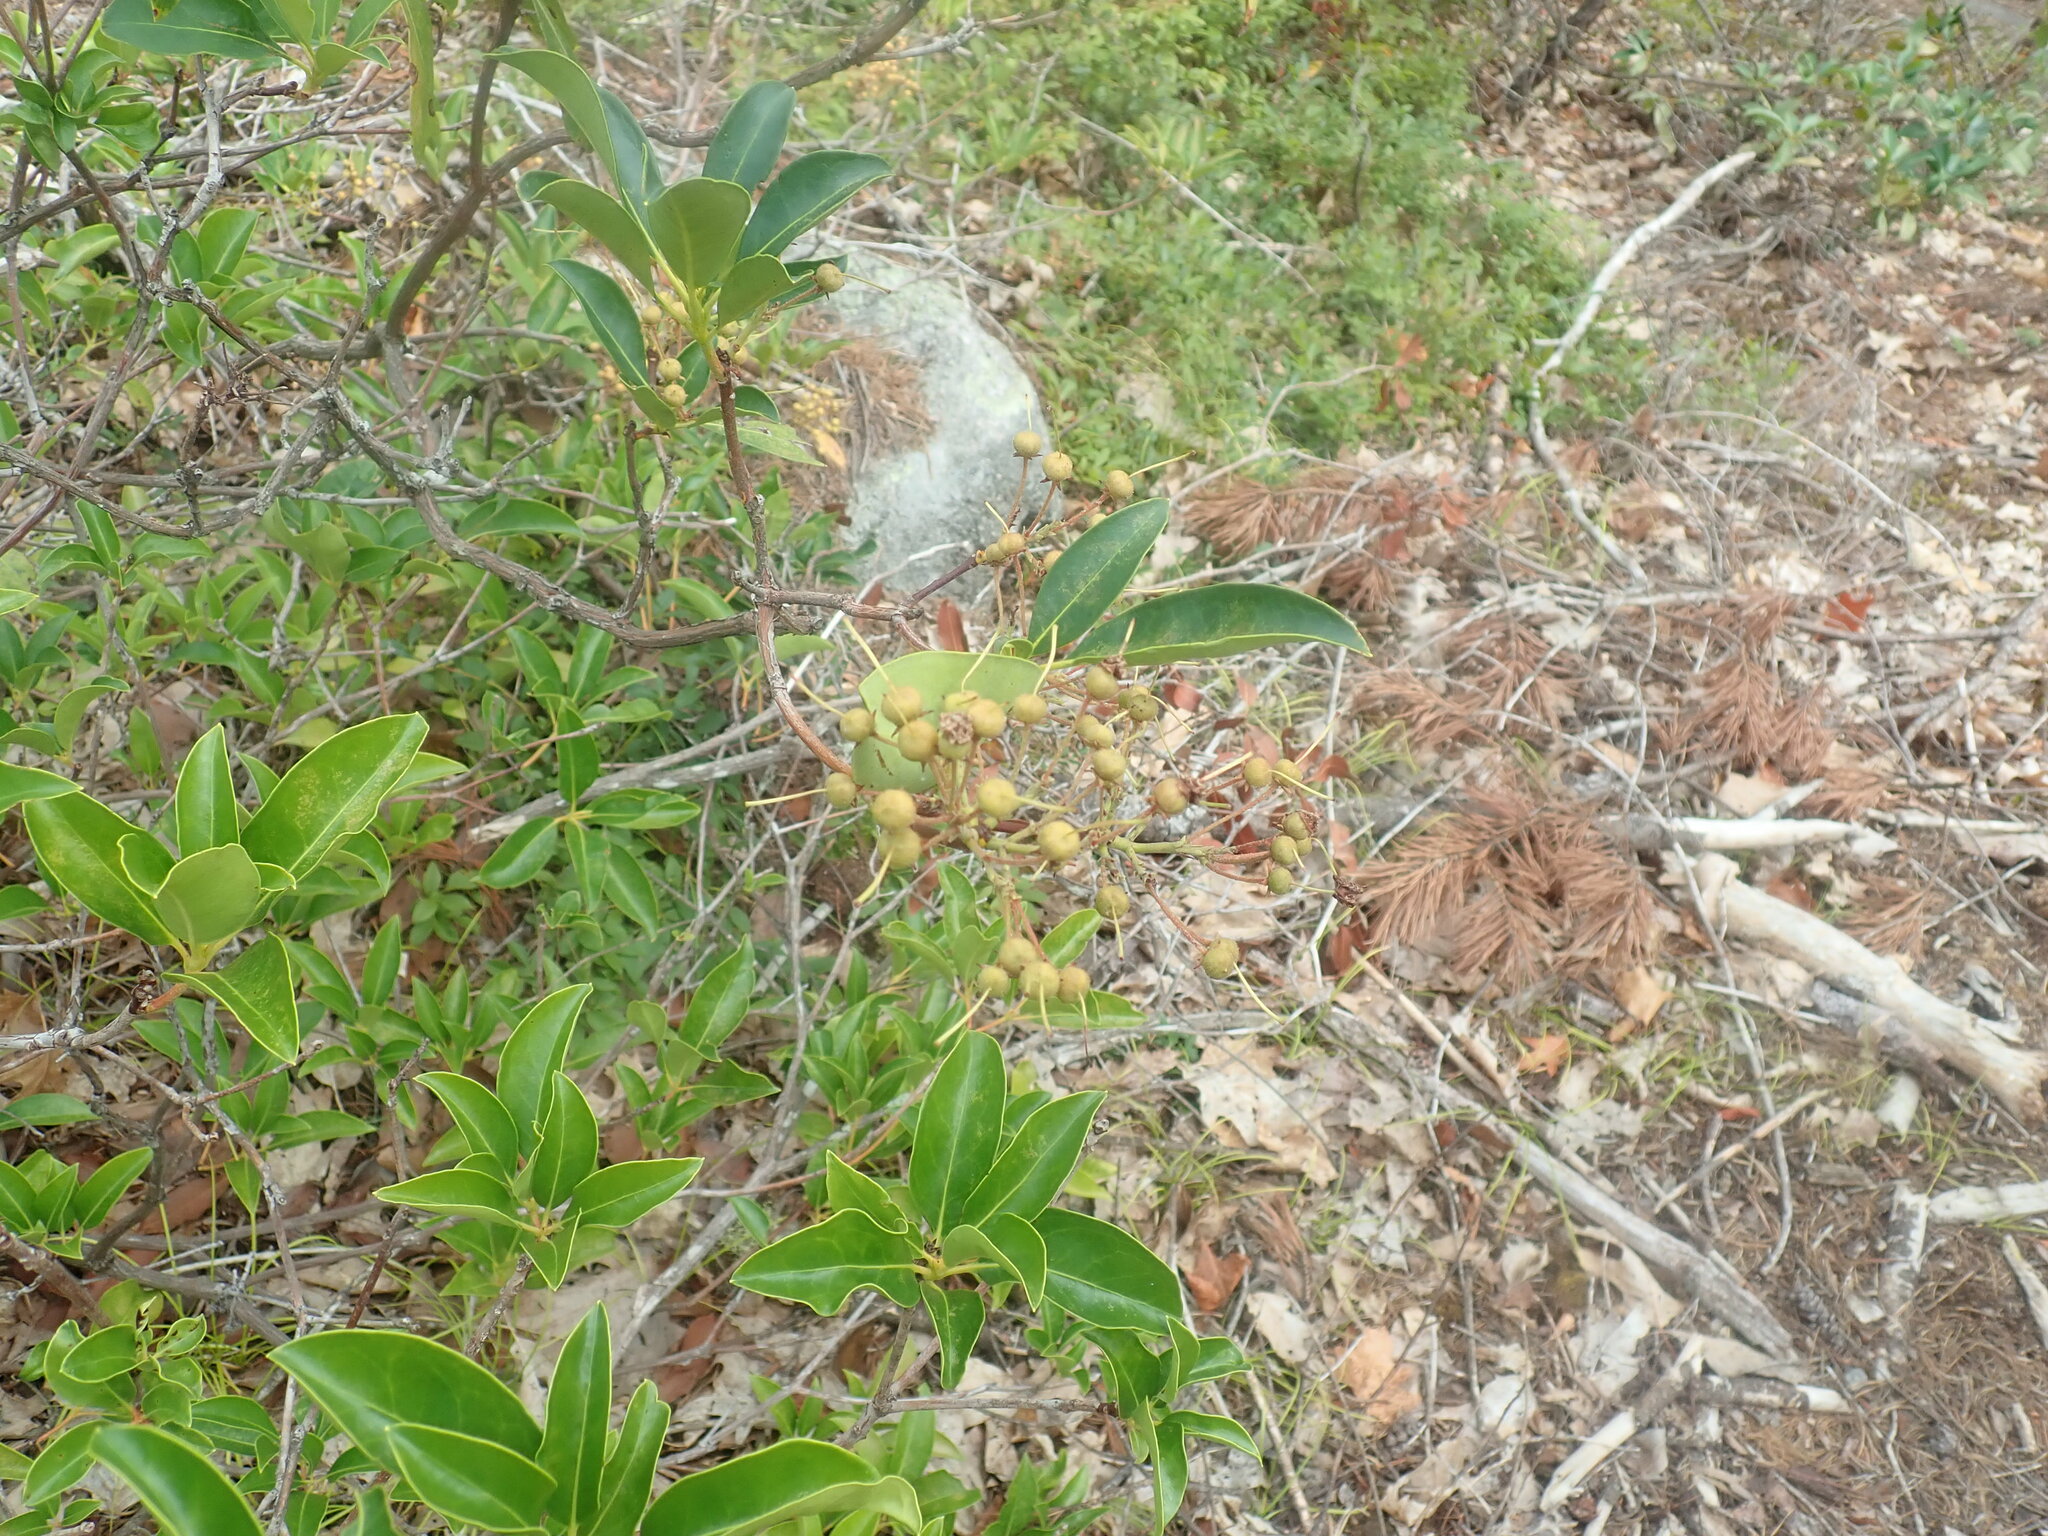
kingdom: Plantae
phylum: Tracheophyta
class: Magnoliopsida
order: Ericales
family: Ericaceae
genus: Kalmia
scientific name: Kalmia latifolia
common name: Mountain-laurel
